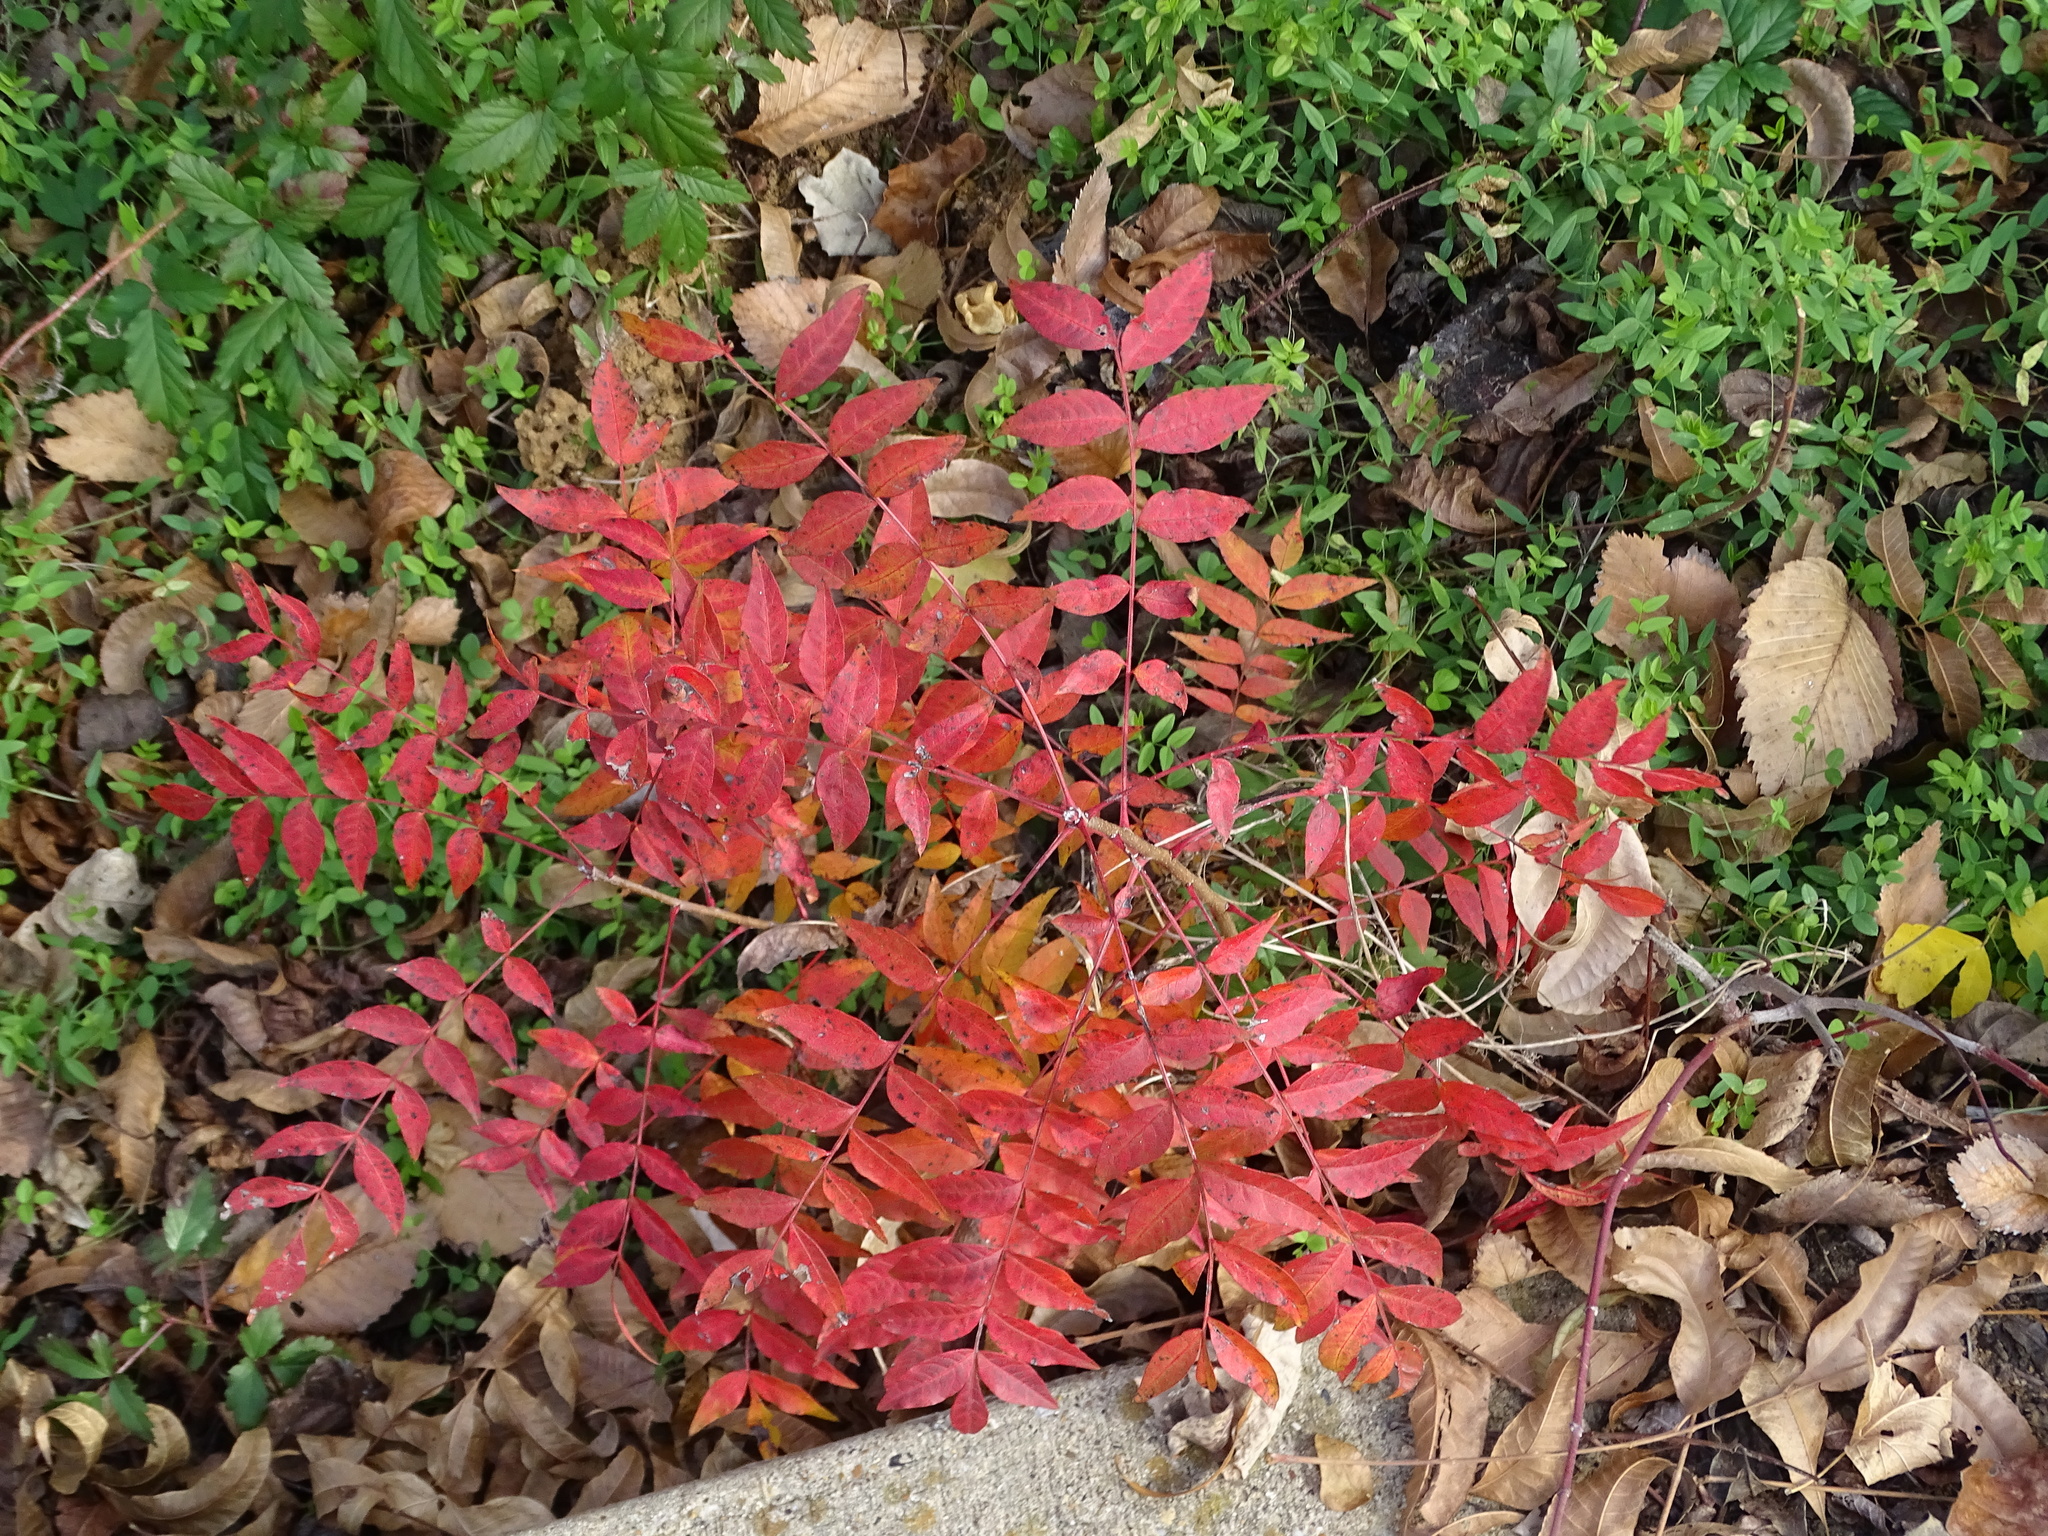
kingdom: Plantae
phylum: Tracheophyta
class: Magnoliopsida
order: Sapindales
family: Anacardiaceae
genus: Pistacia
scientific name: Pistacia chinensis
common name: Chinese pistache
